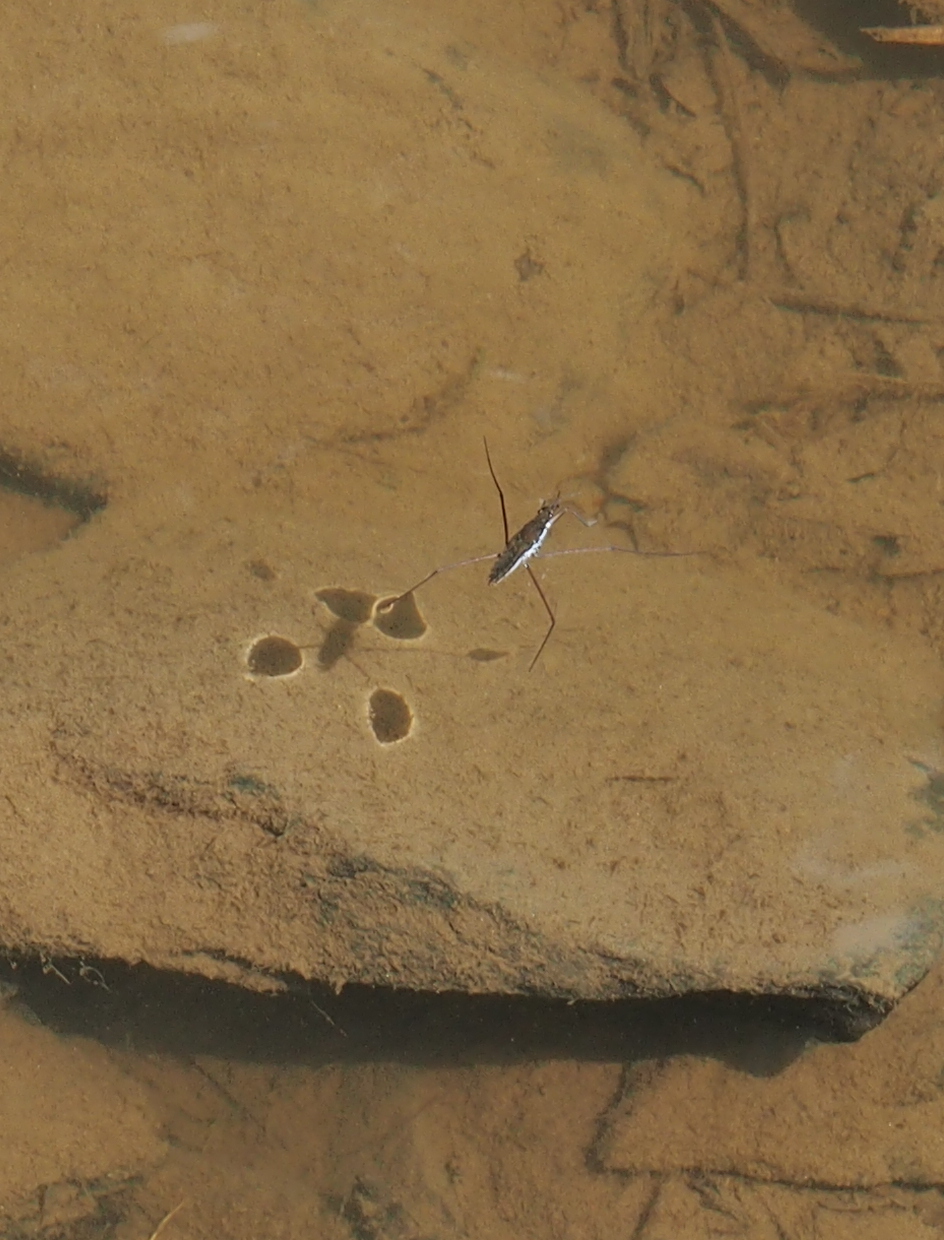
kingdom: Animalia
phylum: Arthropoda
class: Insecta
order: Hemiptera
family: Gerridae
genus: Aquarius
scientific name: Aquarius remigis
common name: Common water strider
